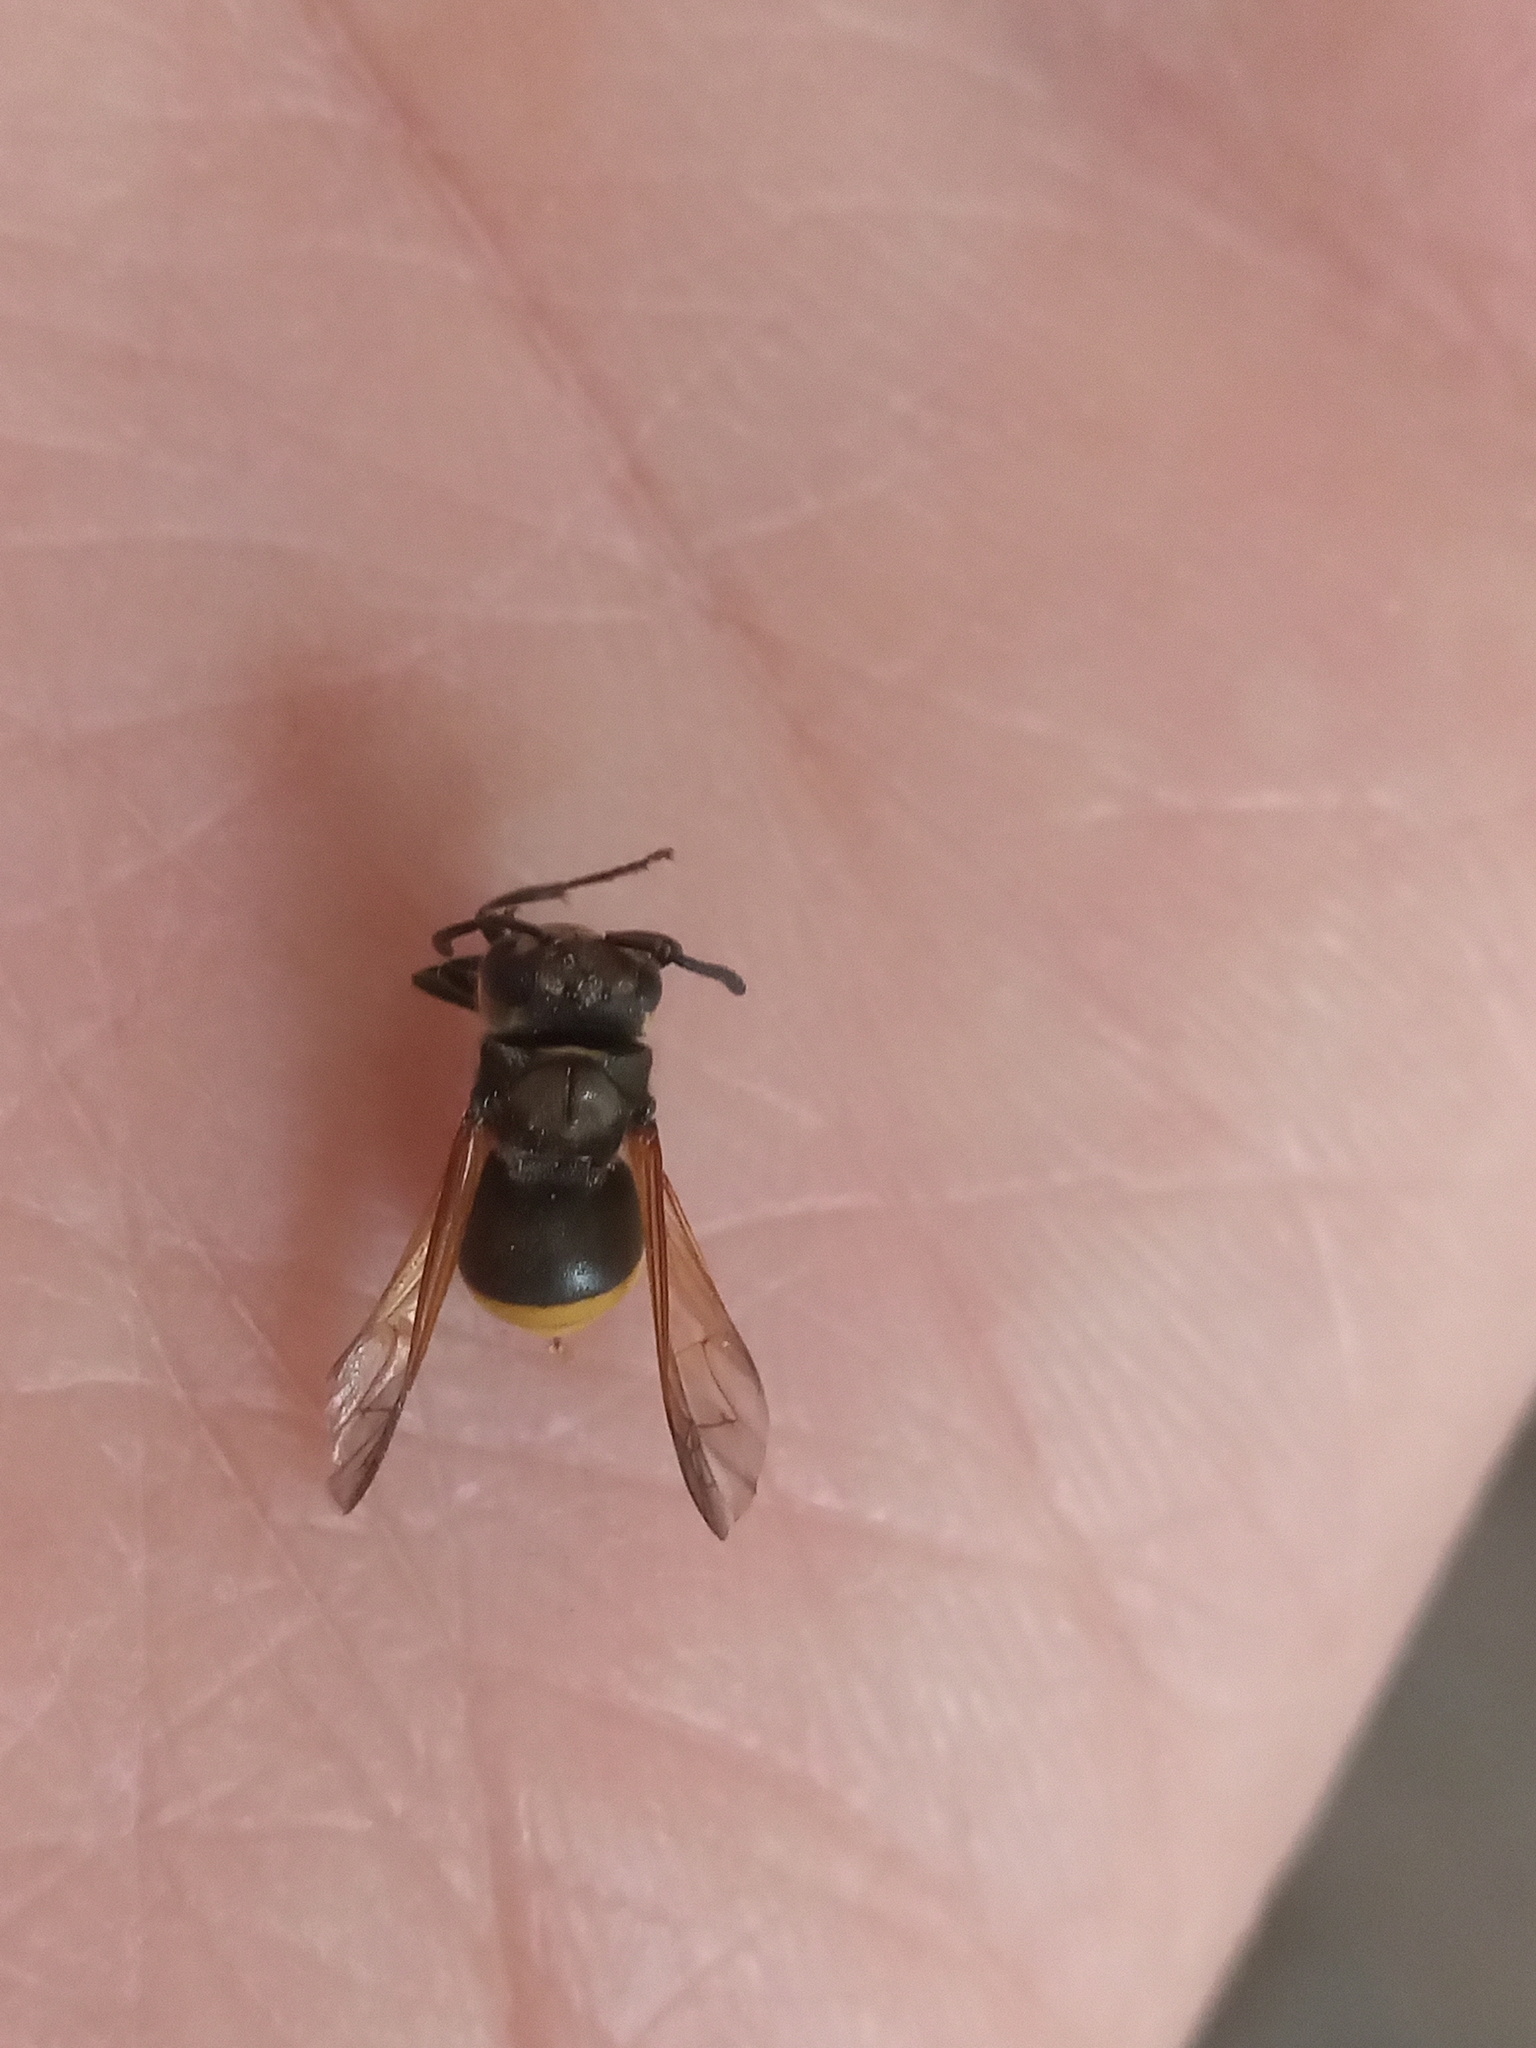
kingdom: Animalia
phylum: Arthropoda
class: Insecta
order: Hymenoptera
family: Vespidae
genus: Brachygastra
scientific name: Brachygastra mellifica
